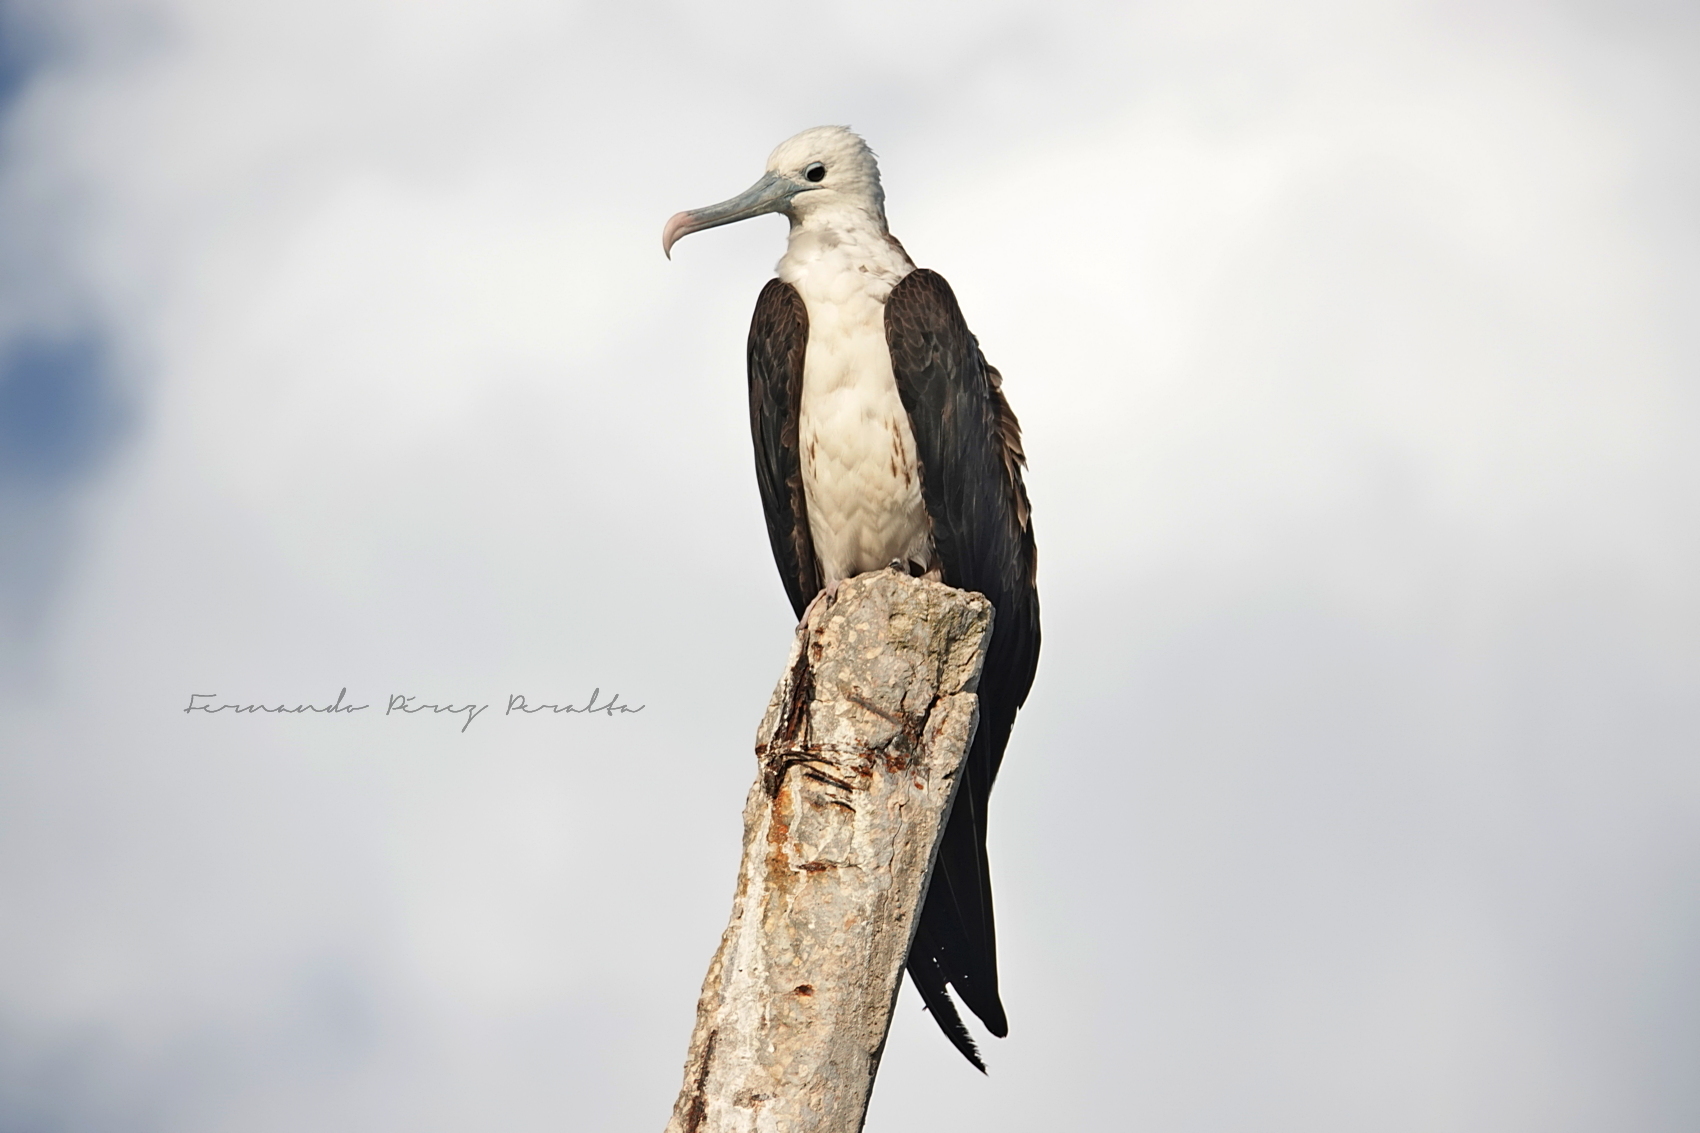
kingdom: Animalia
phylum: Chordata
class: Aves
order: Suliformes
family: Fregatidae
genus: Fregata
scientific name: Fregata magnificens
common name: Magnificent frigatebird
